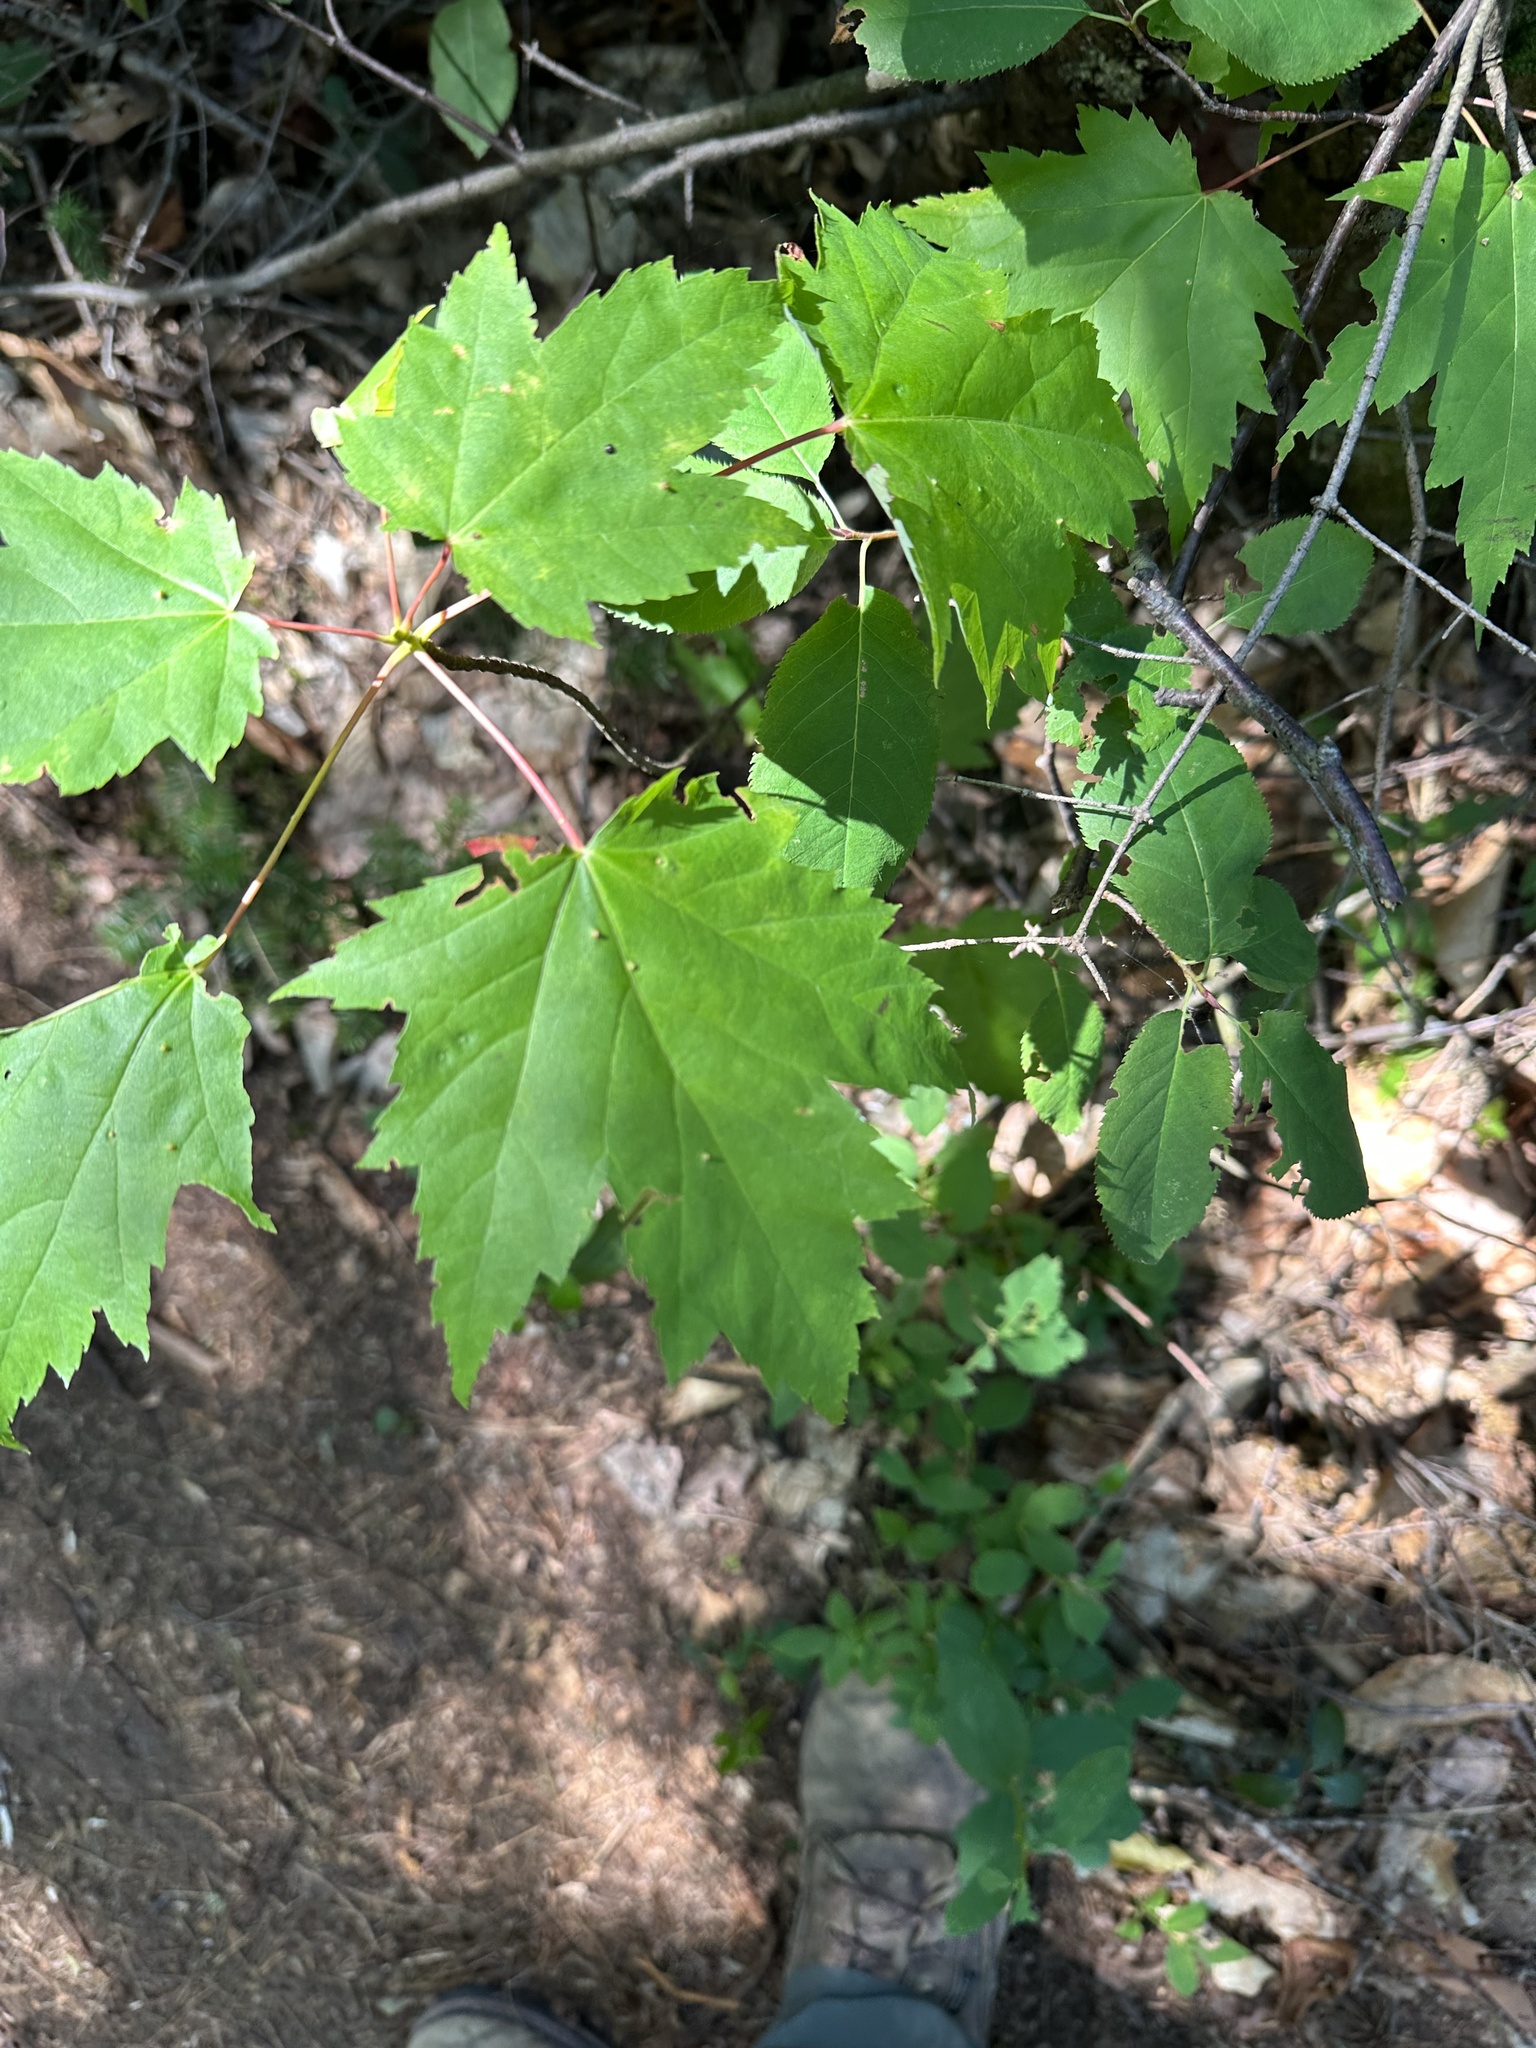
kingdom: Plantae
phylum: Tracheophyta
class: Magnoliopsida
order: Sapindales
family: Sapindaceae
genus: Acer
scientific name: Acer rubrum
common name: Red maple
